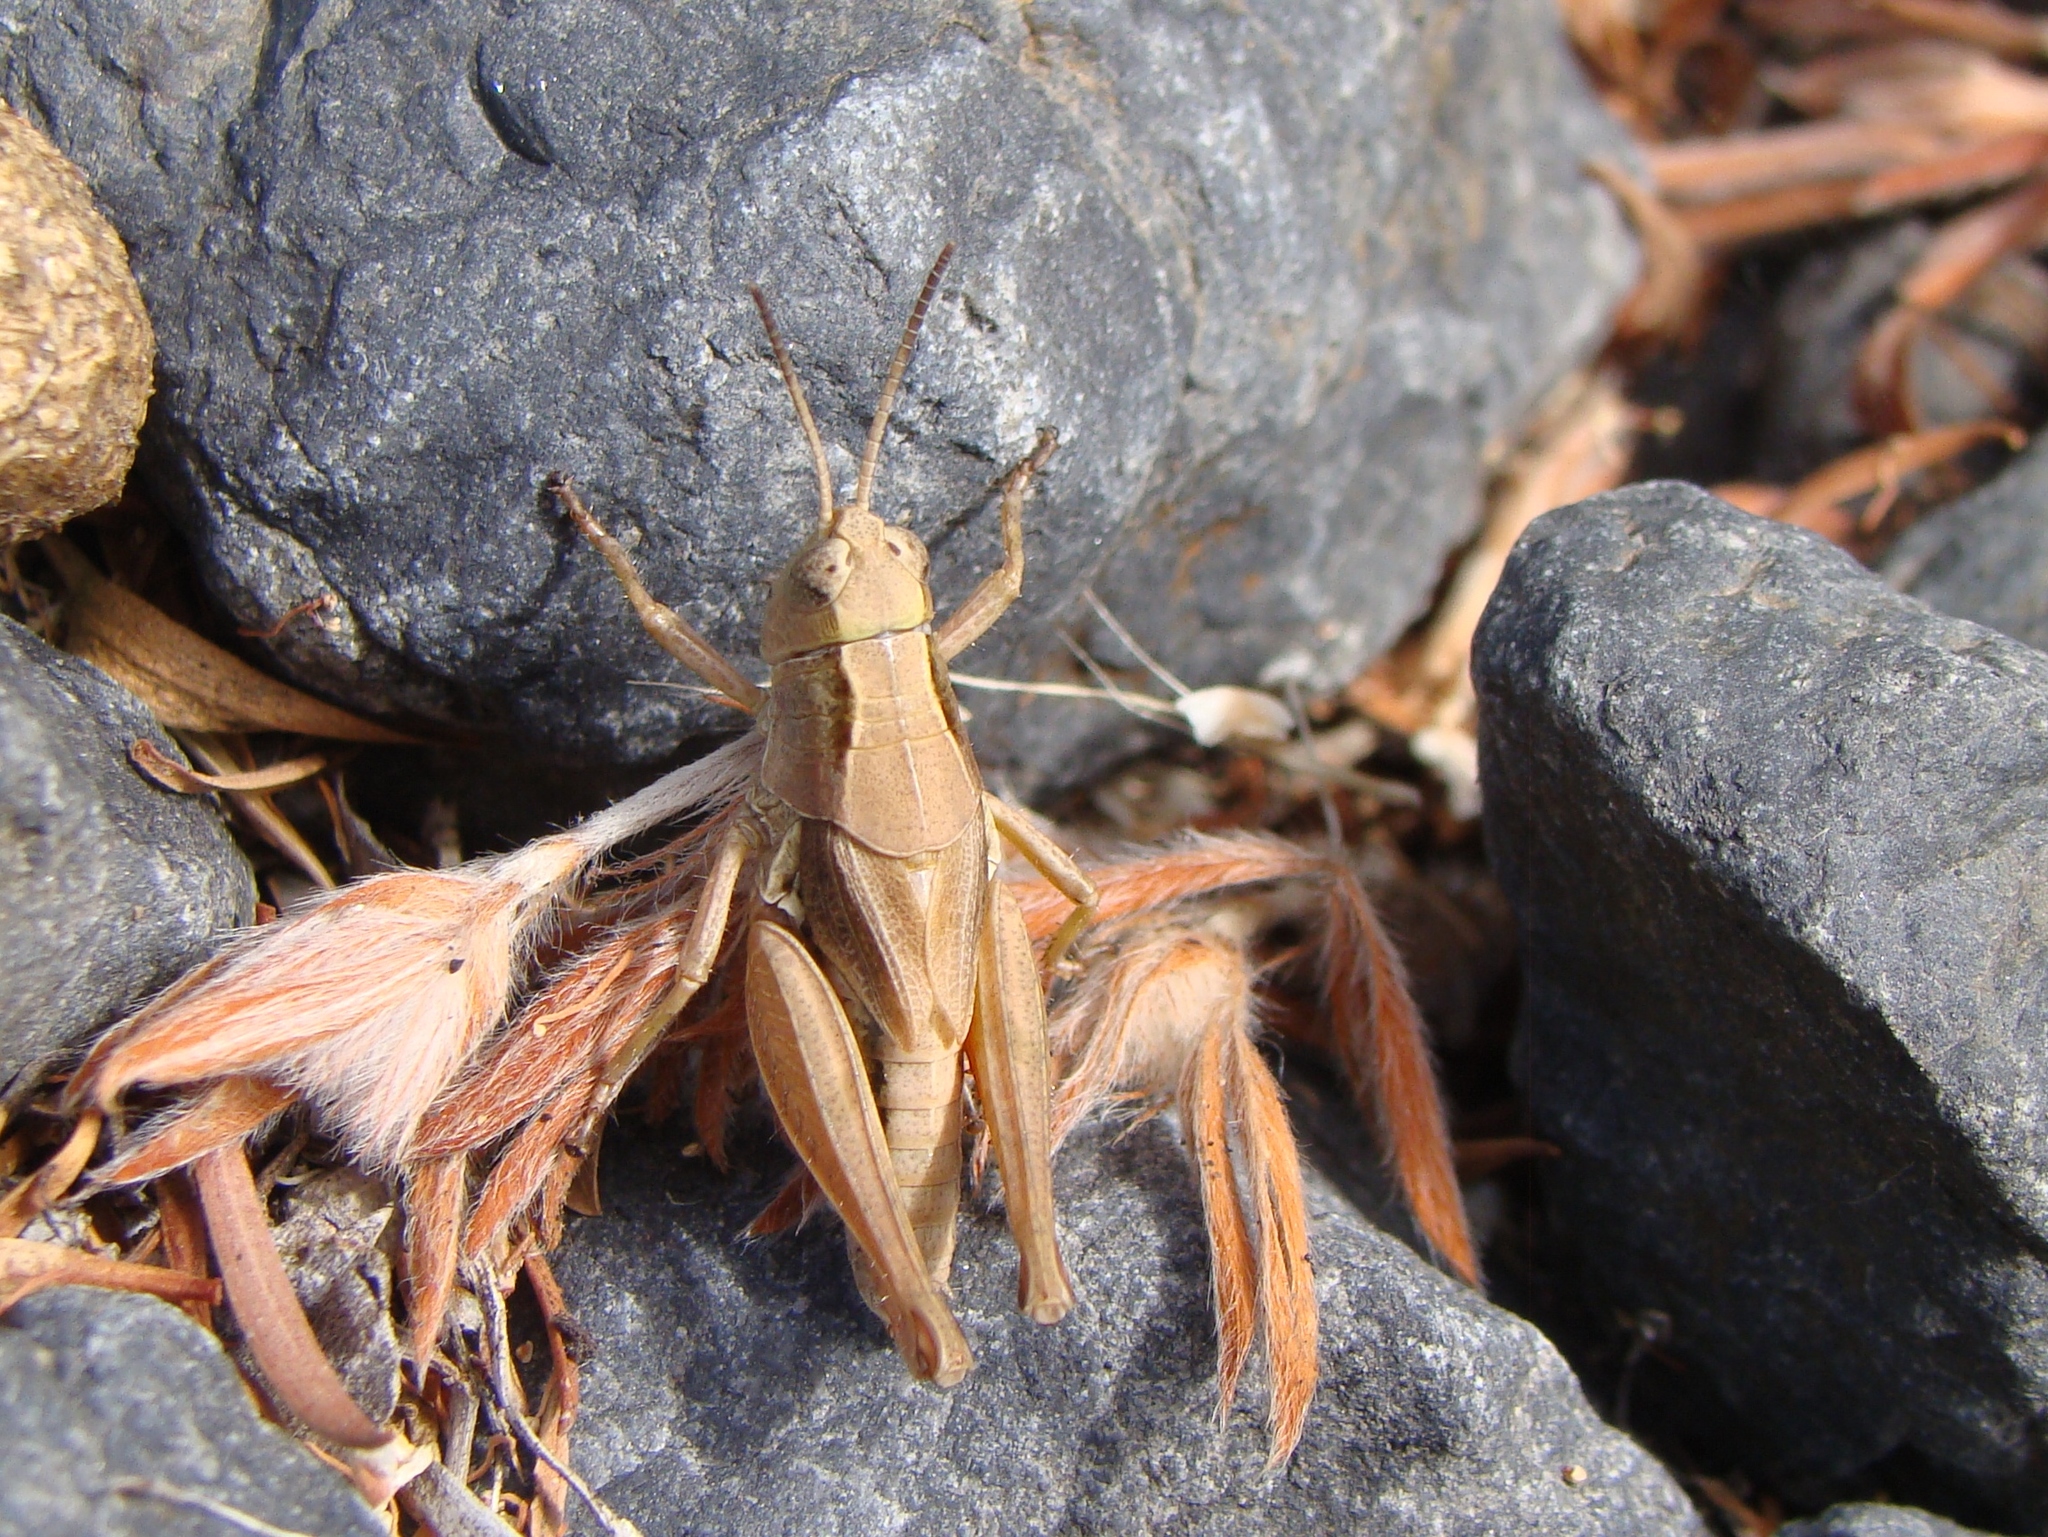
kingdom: Animalia
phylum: Arthropoda
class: Insecta
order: Orthoptera
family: Acrididae
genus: Phaulacridium
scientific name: Phaulacridium marginale
